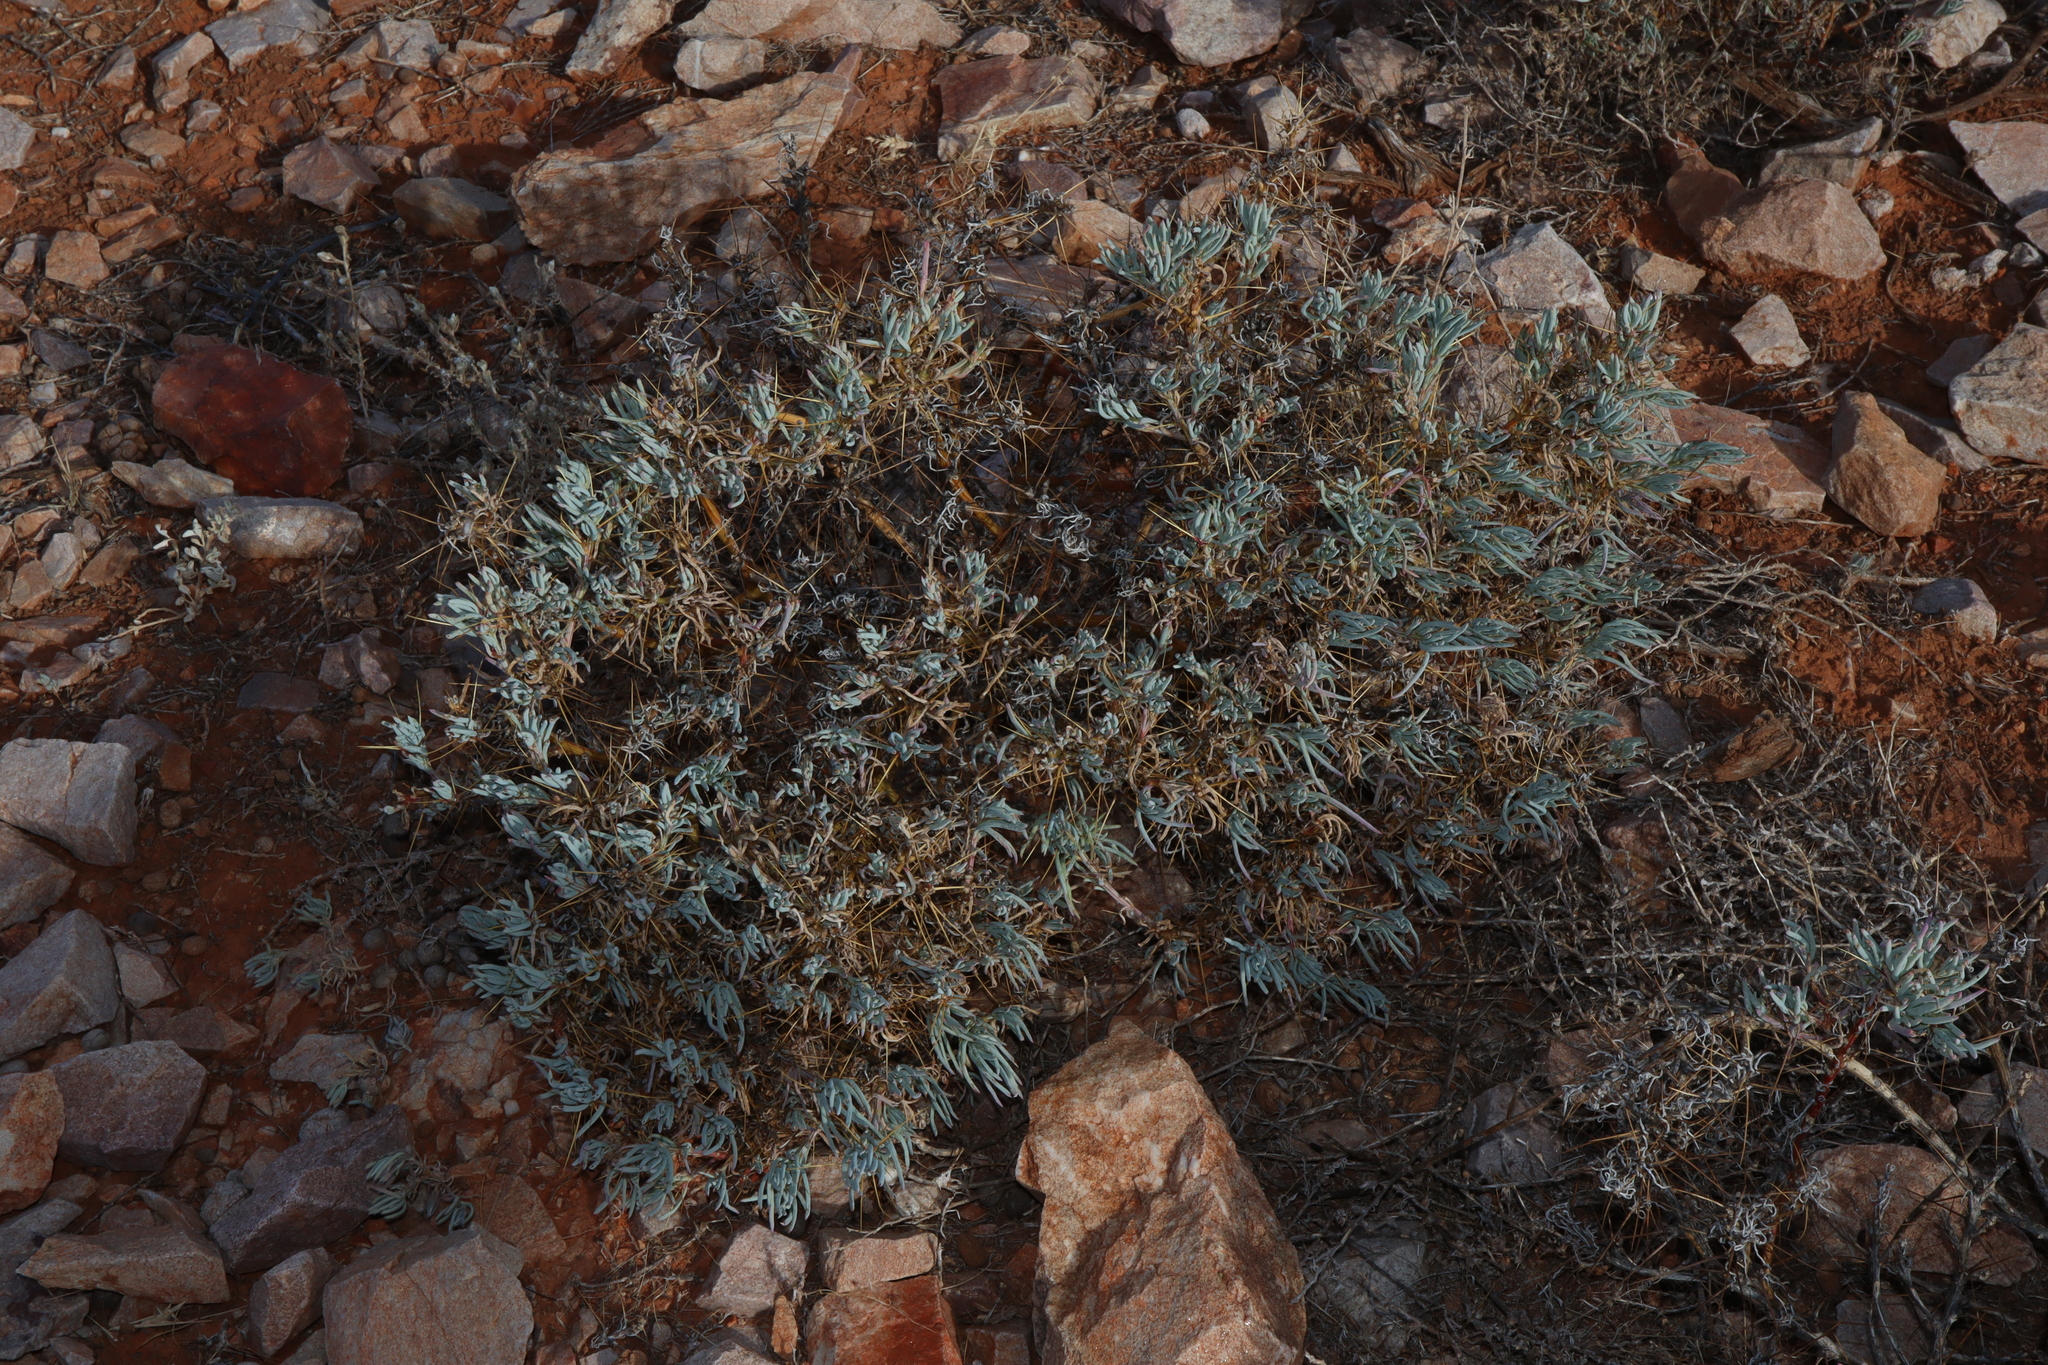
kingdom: Plantae
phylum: Tracheophyta
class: Magnoliopsida
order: Caryophyllales
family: Amaranthaceae
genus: Sclerolaena
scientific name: Sclerolaena longicuspis
